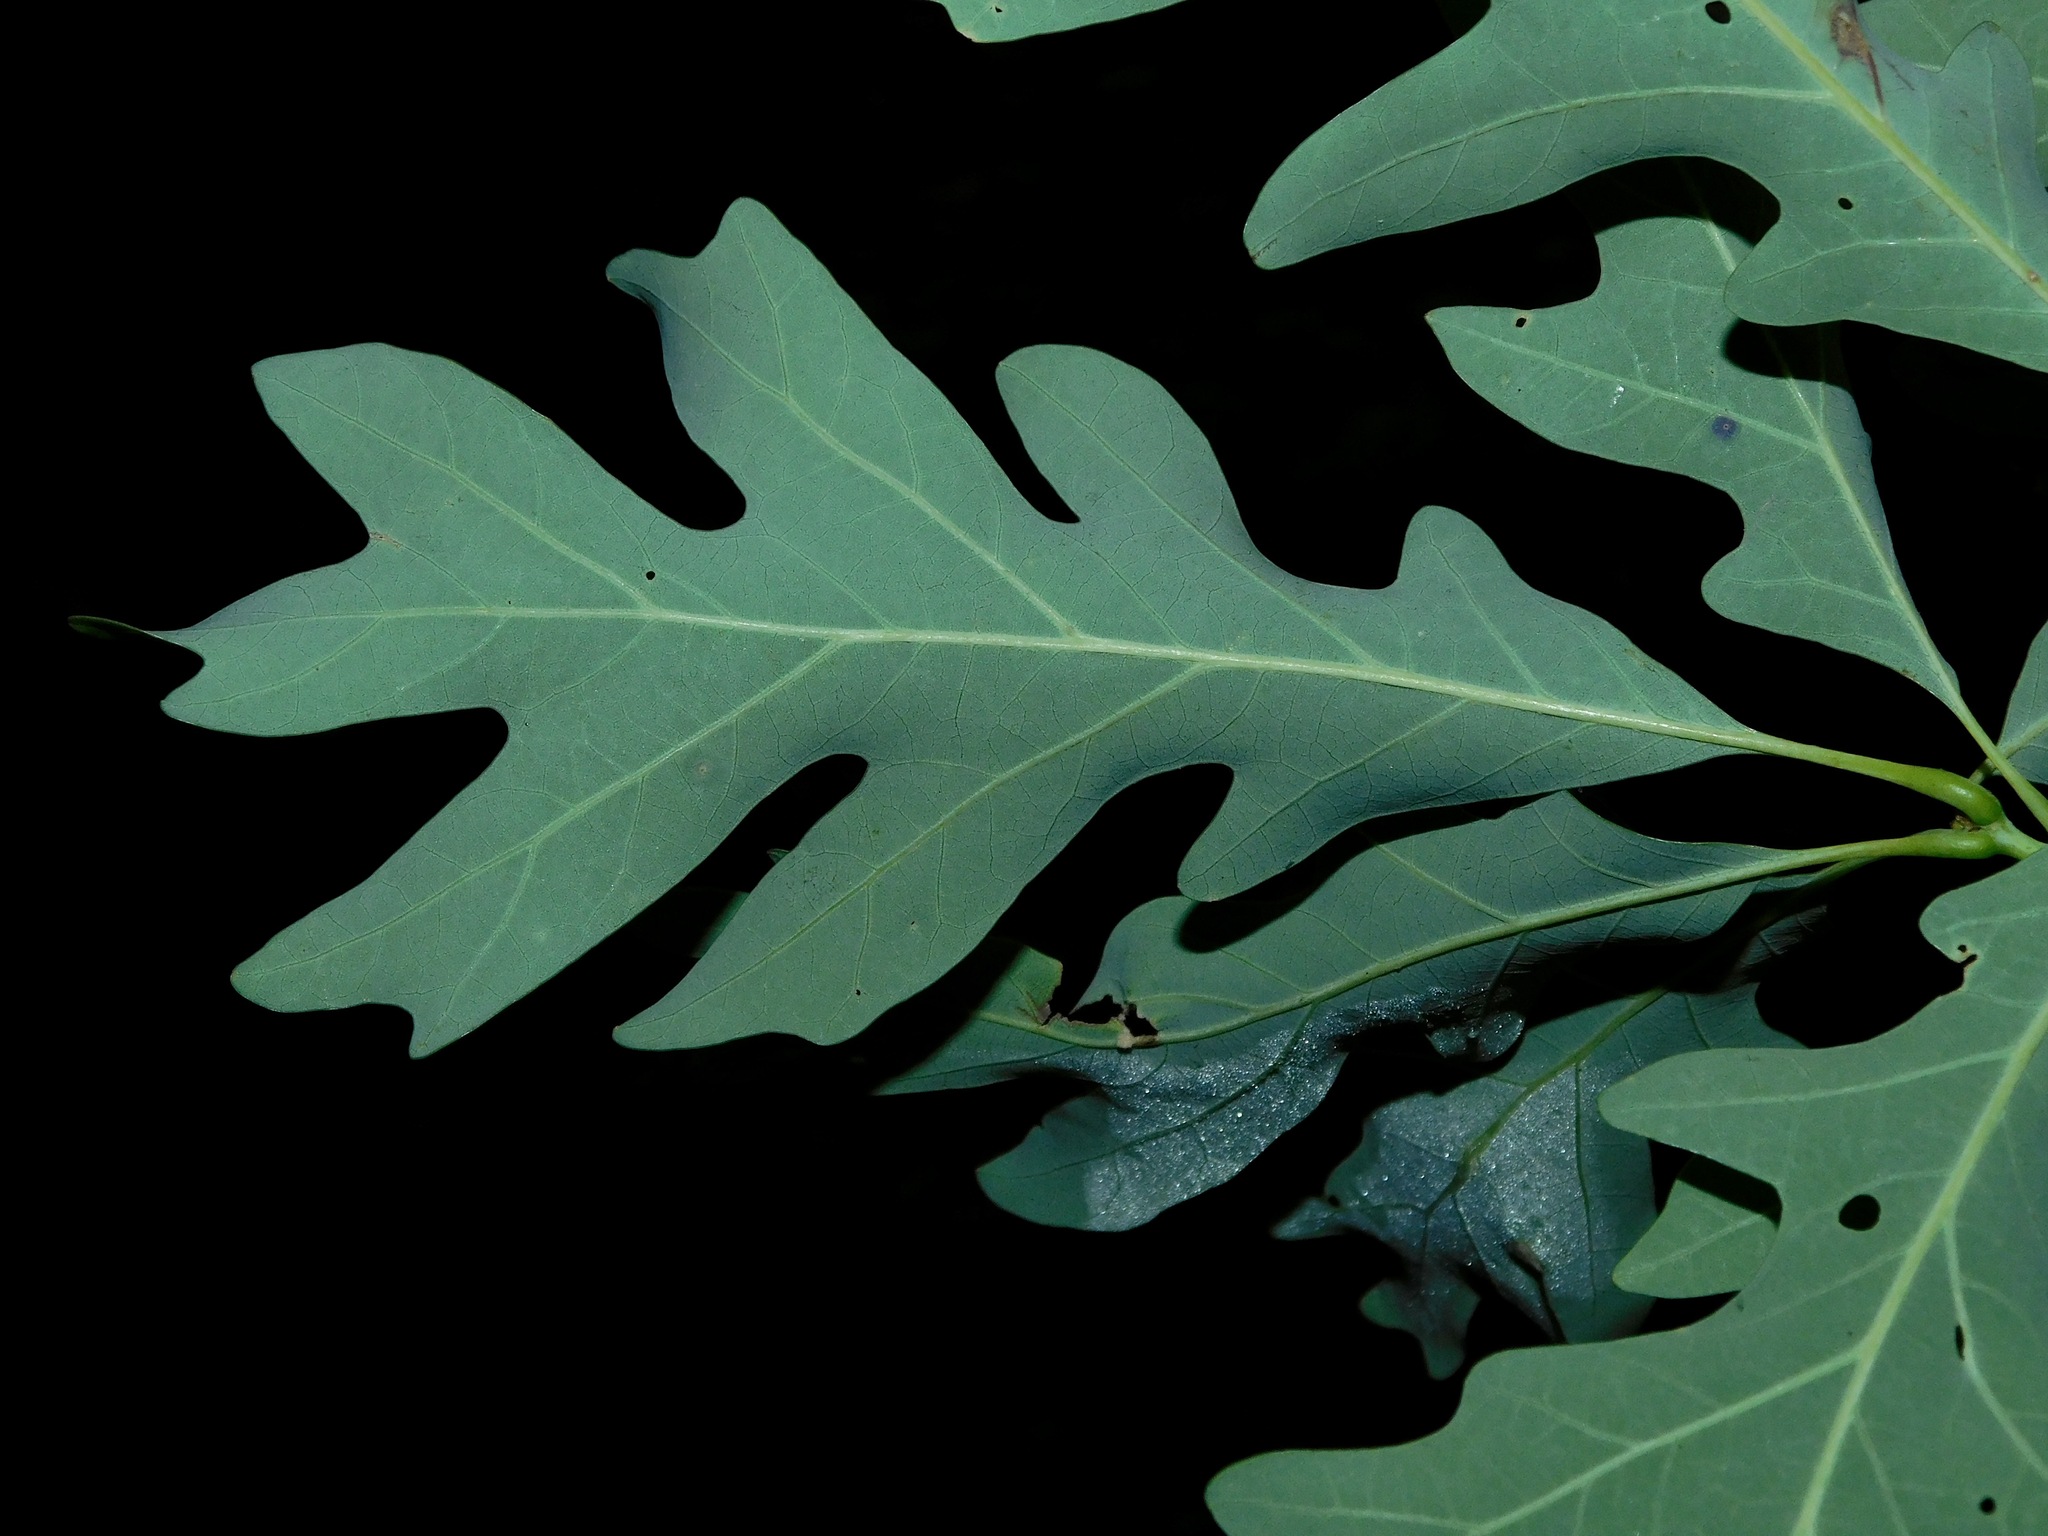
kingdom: Plantae
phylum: Tracheophyta
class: Magnoliopsida
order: Fagales
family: Fagaceae
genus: Quercus
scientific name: Quercus alba
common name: White oak
